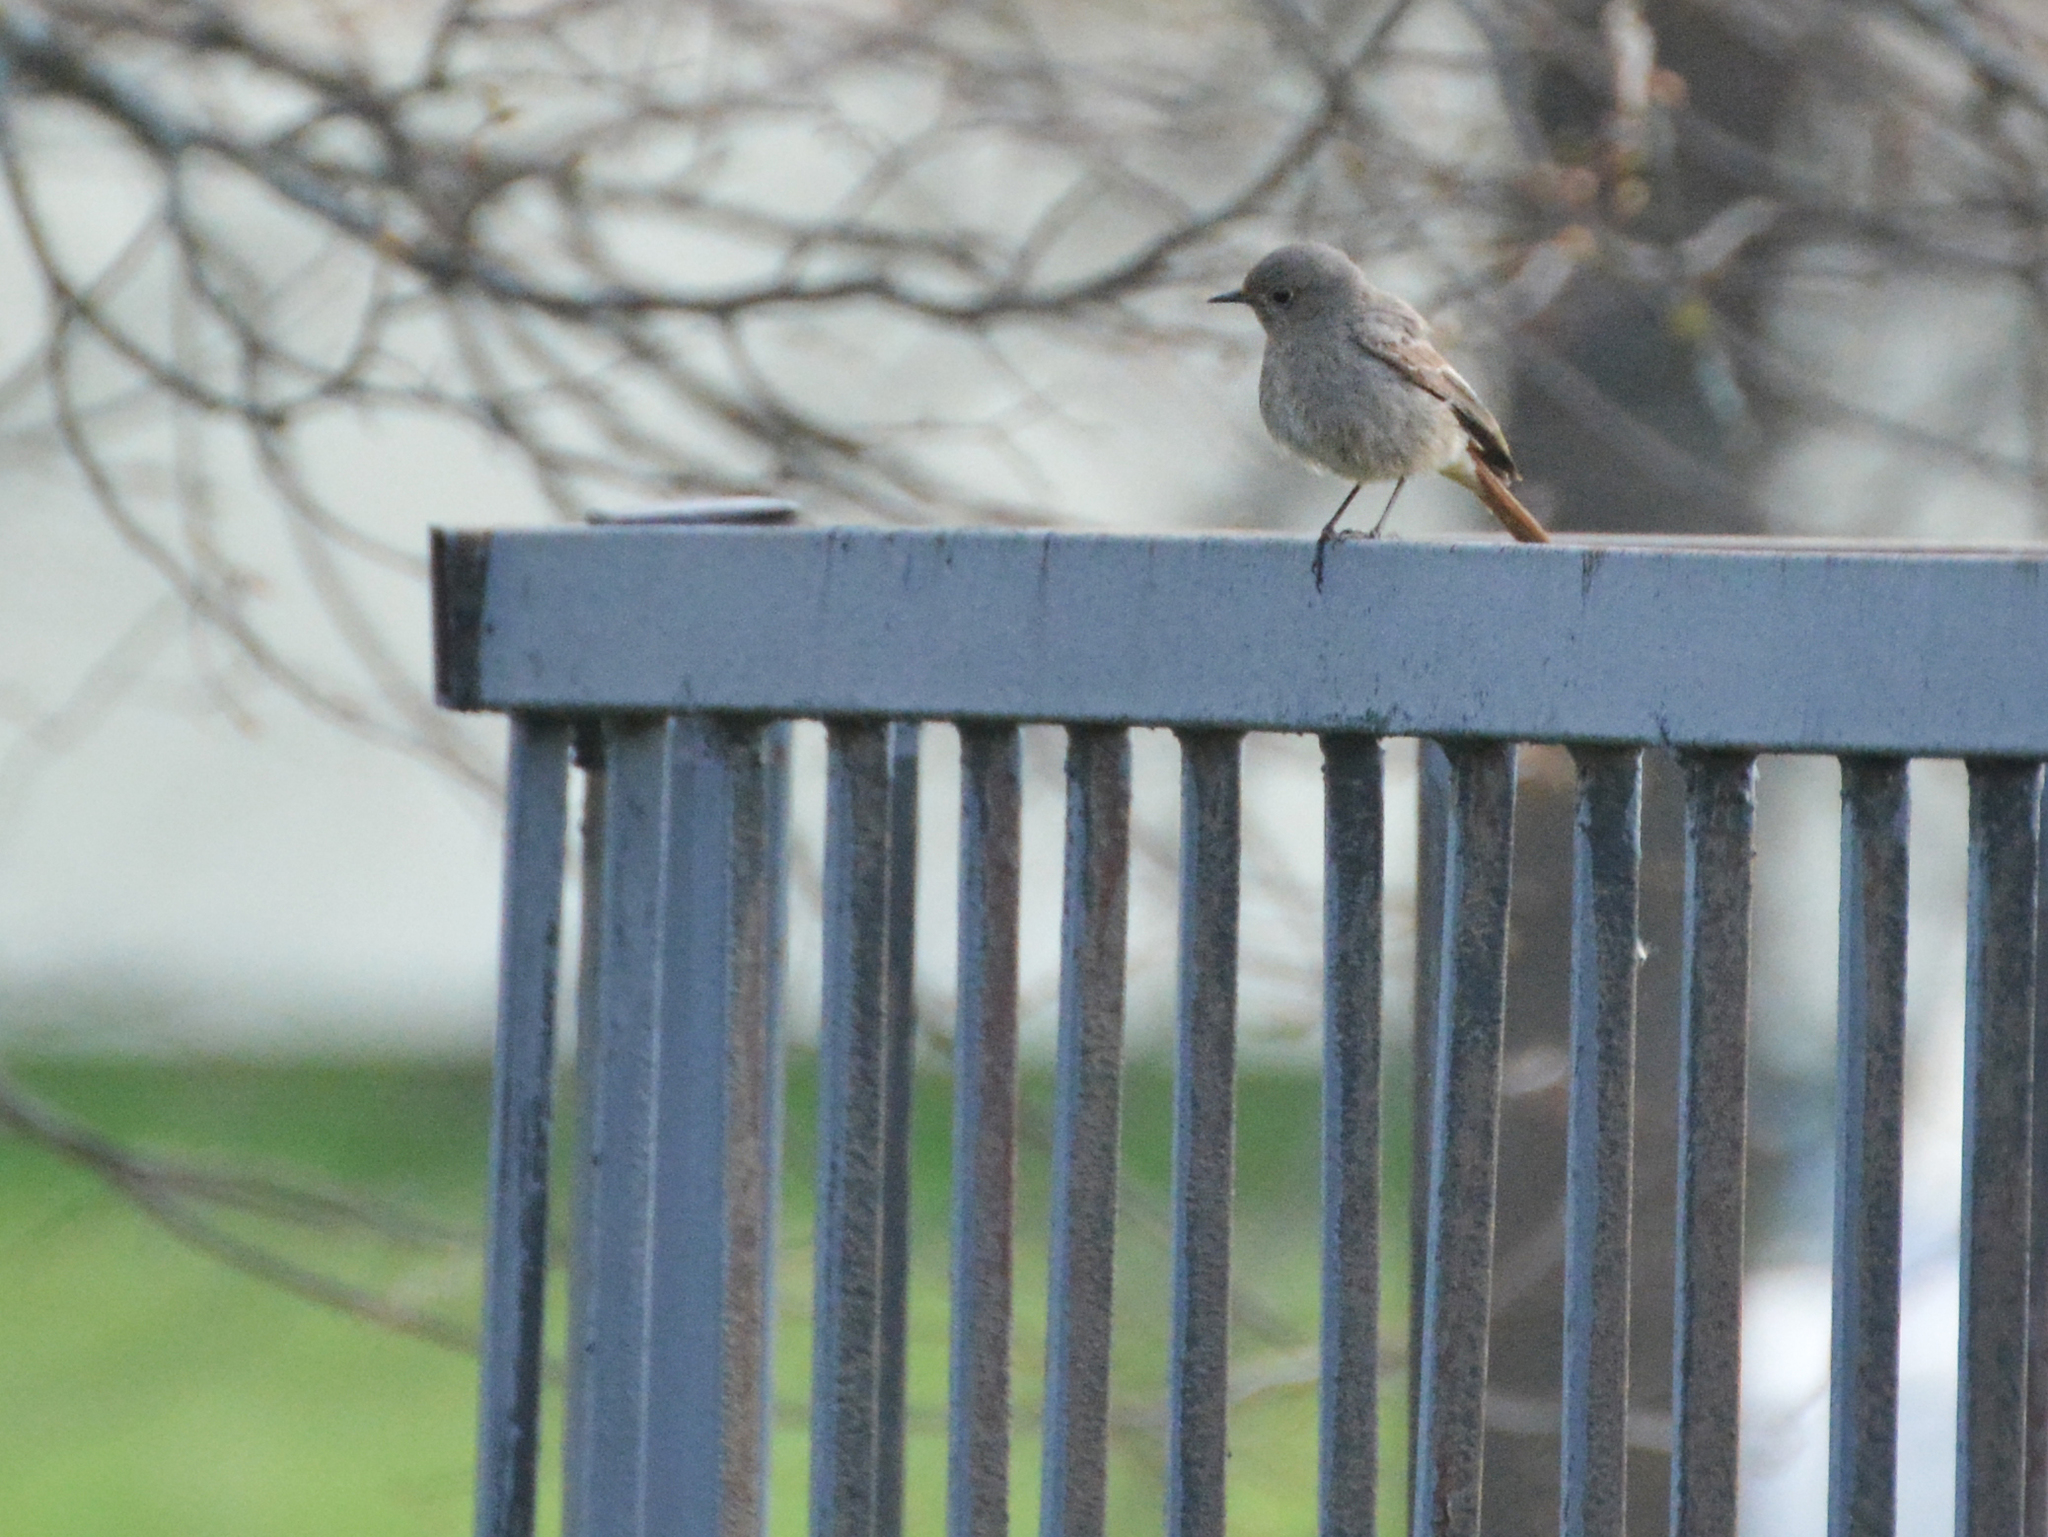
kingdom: Animalia
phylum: Chordata
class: Aves
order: Passeriformes
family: Muscicapidae
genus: Phoenicurus
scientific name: Phoenicurus ochruros
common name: Black redstart
